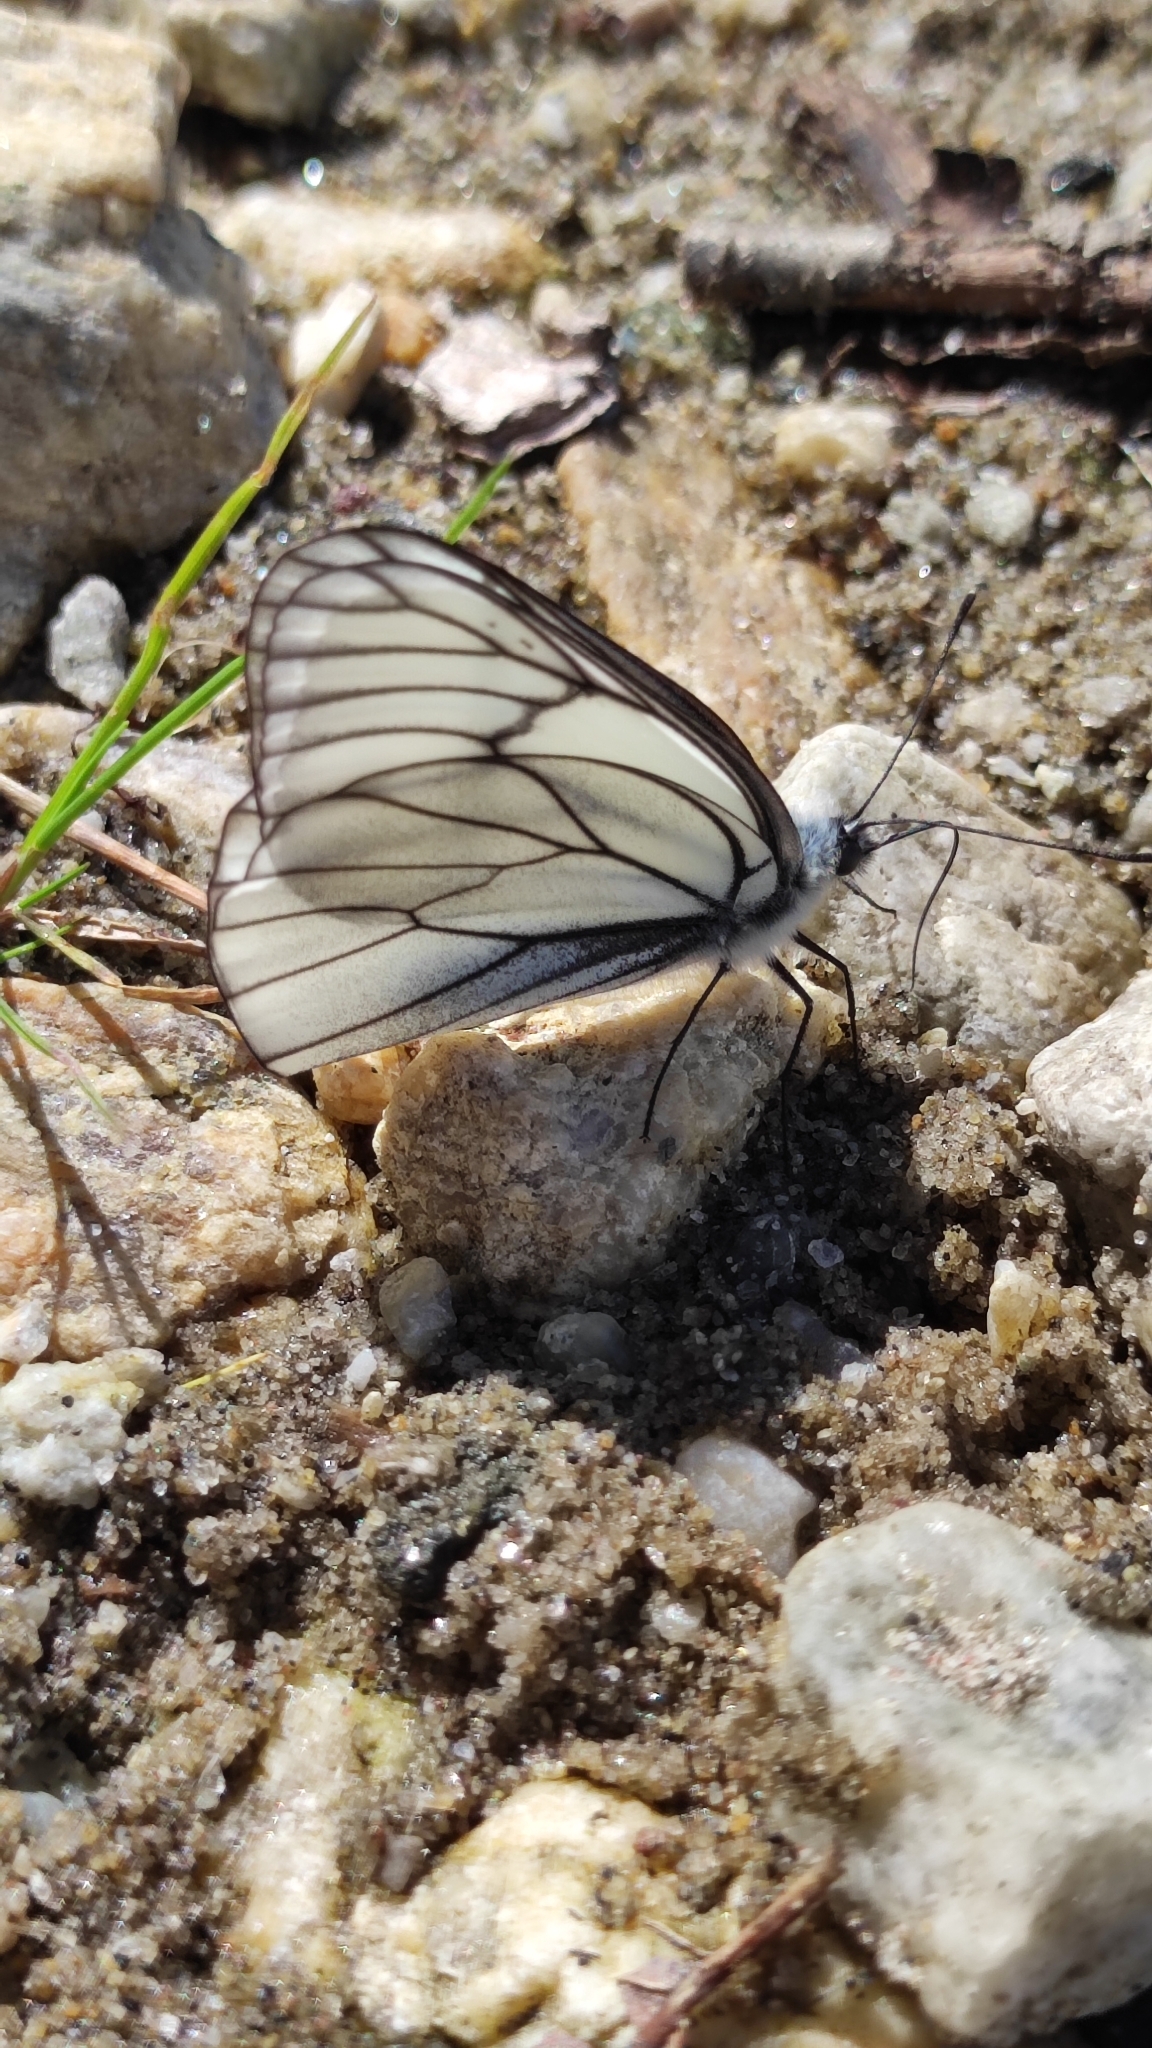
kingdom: Animalia
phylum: Arthropoda
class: Insecta
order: Lepidoptera
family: Pieridae
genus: Aporia
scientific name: Aporia crataegi
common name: Black-veined white
